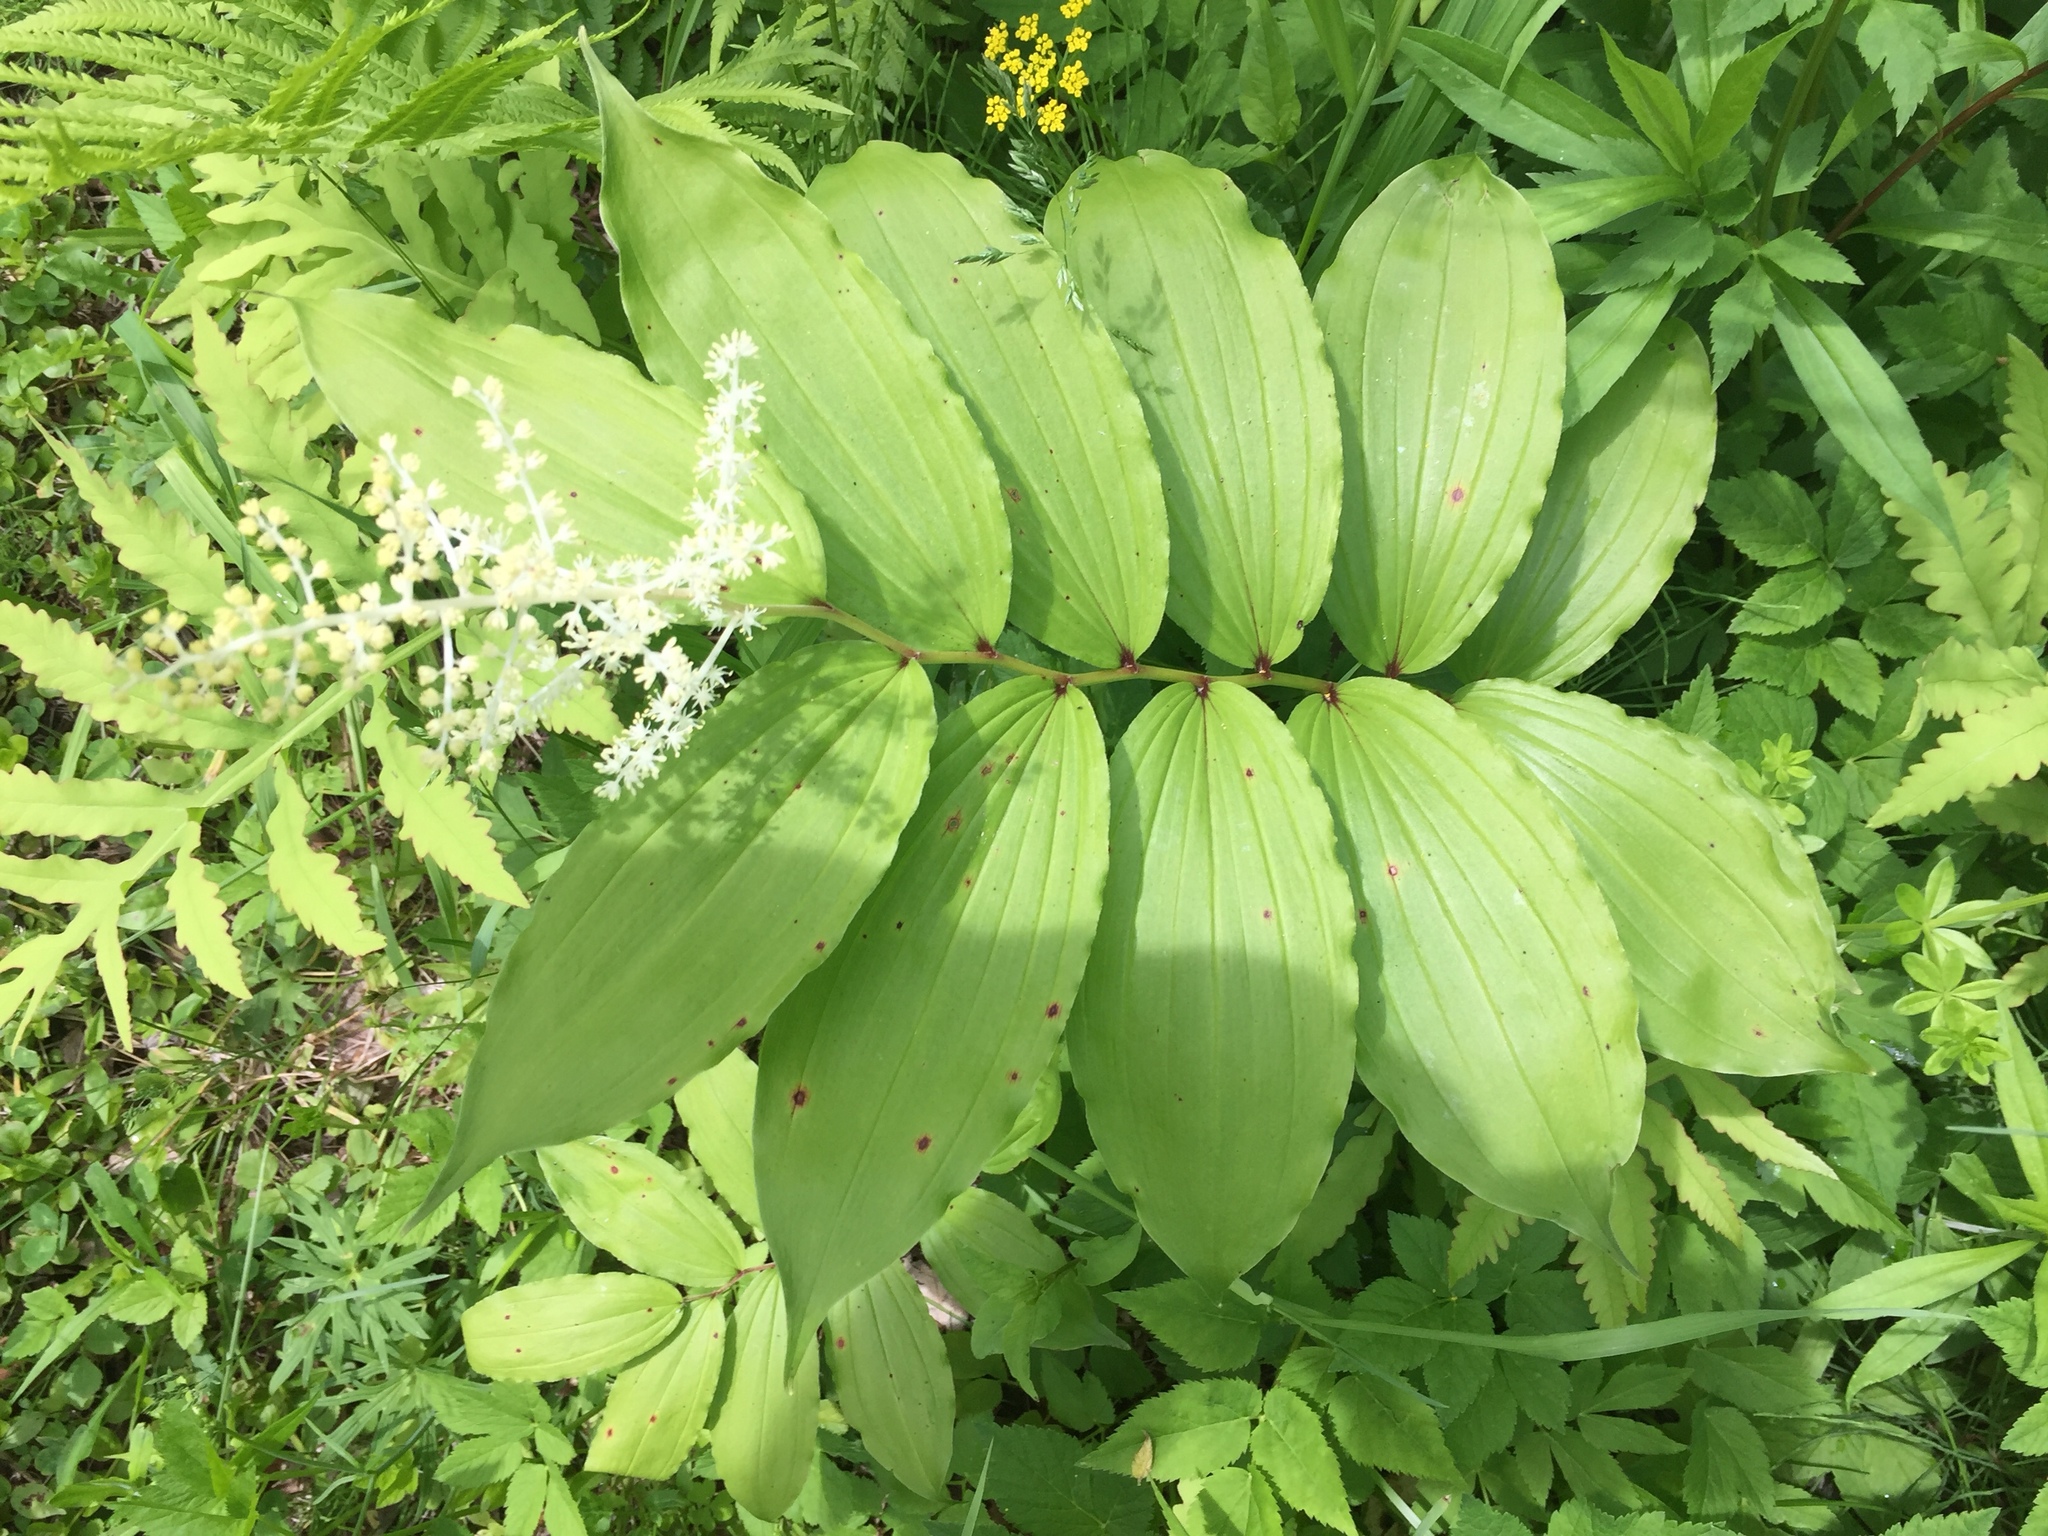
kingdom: Plantae
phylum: Tracheophyta
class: Liliopsida
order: Asparagales
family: Asparagaceae
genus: Maianthemum
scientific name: Maianthemum racemosum
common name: False spikenard
